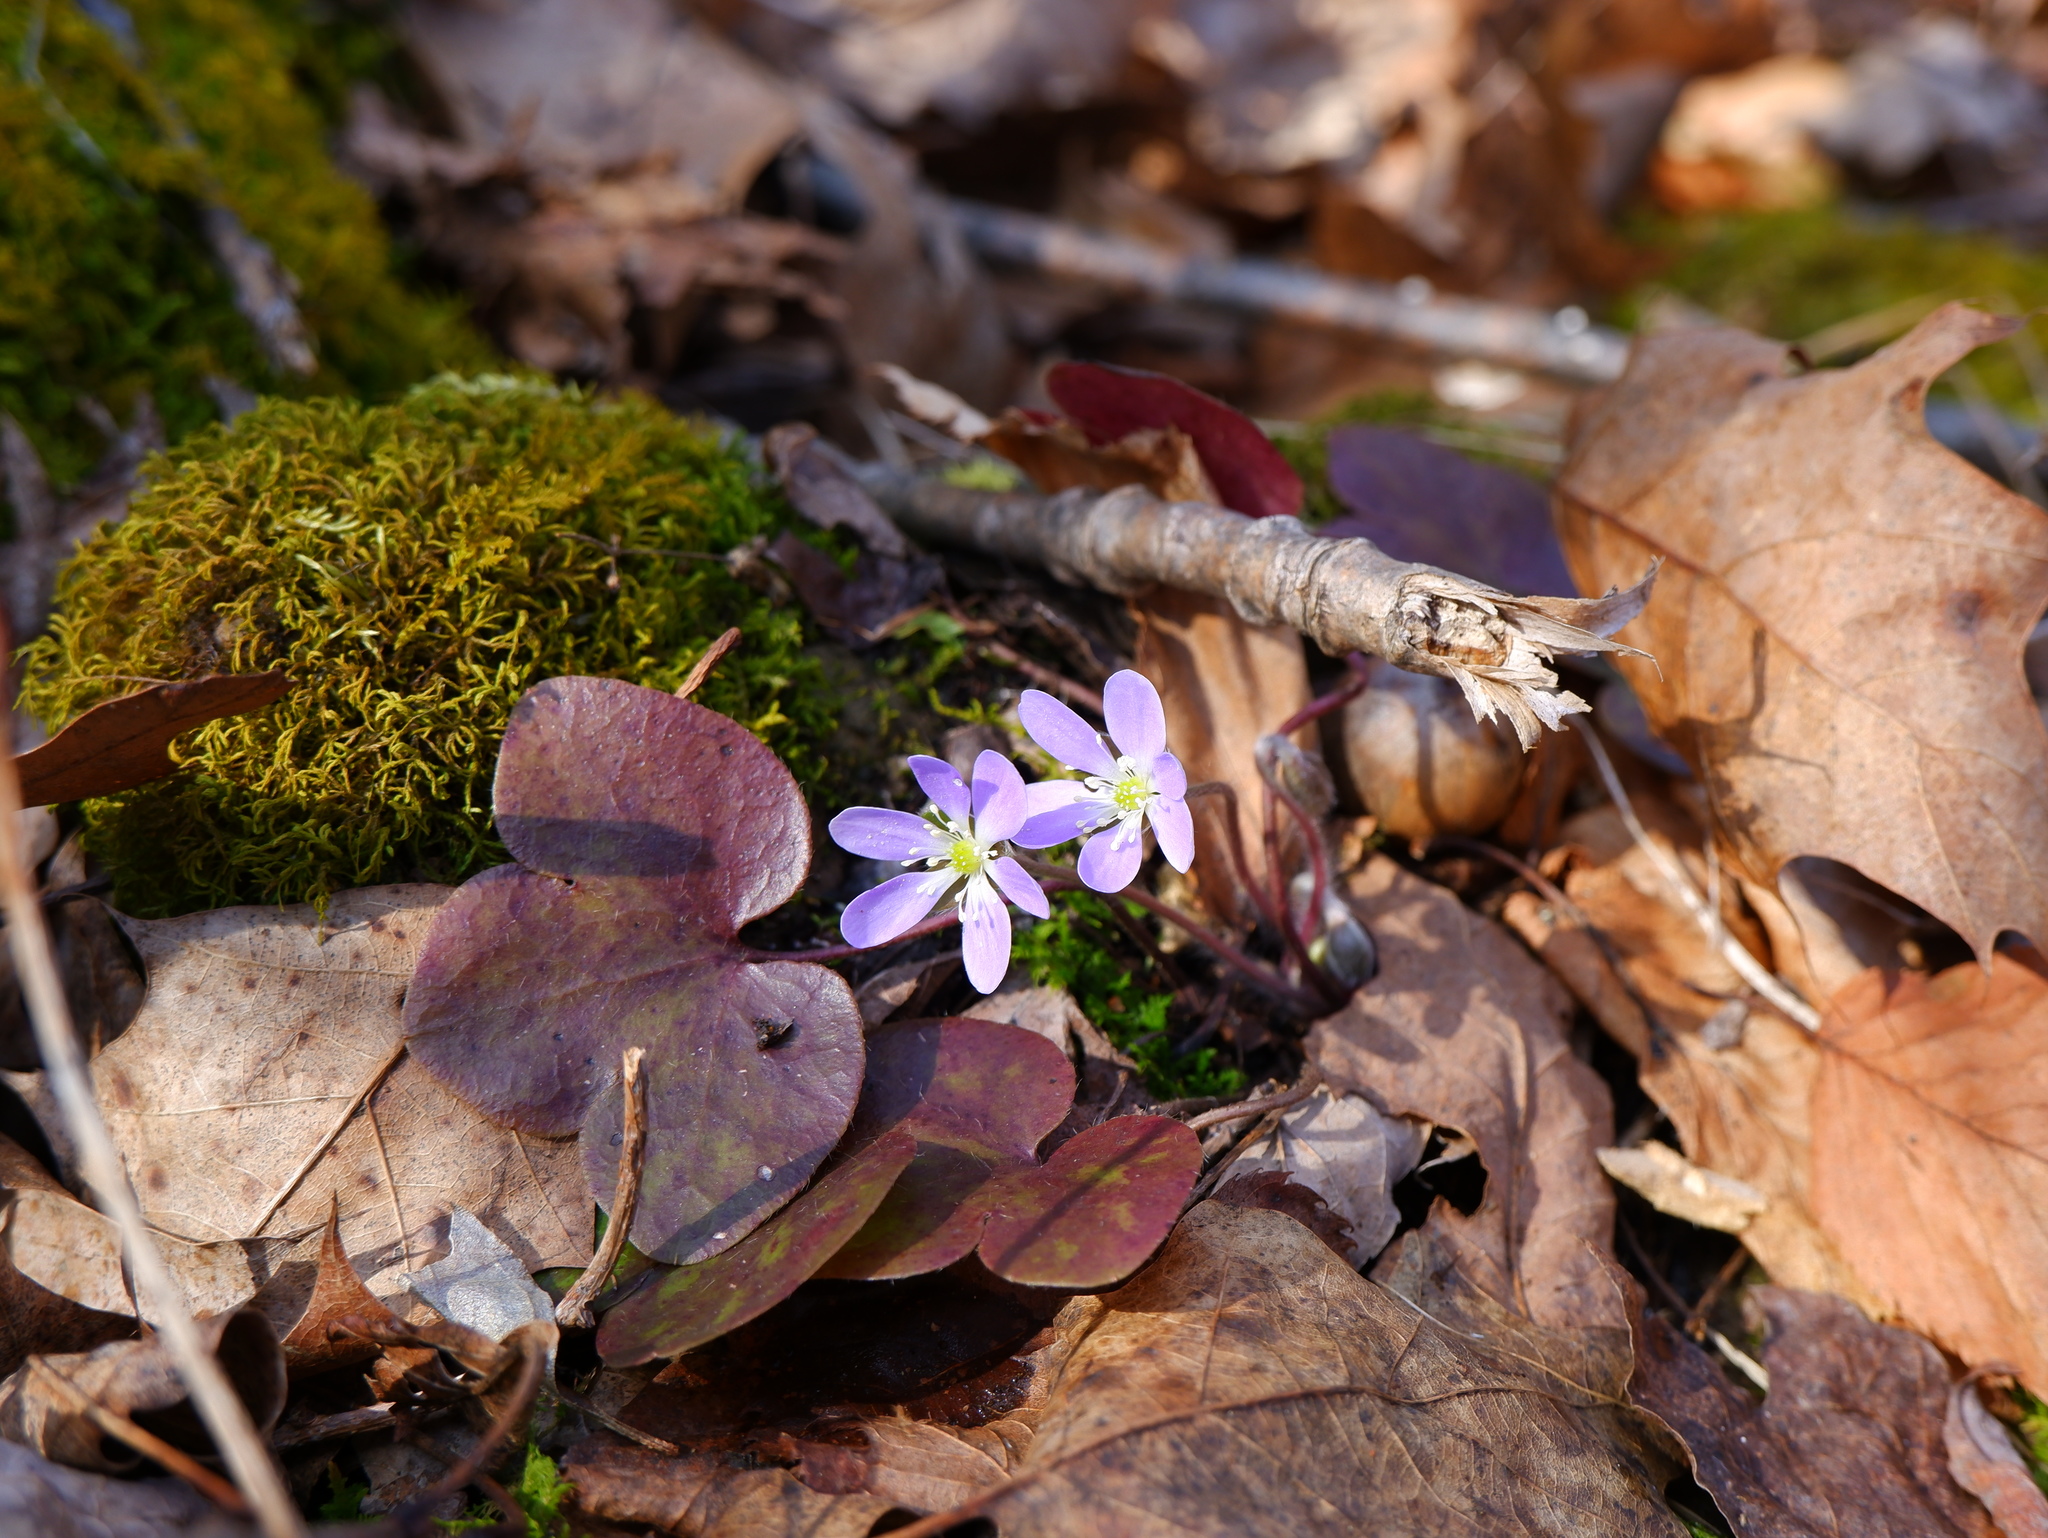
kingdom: Plantae
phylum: Tracheophyta
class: Magnoliopsida
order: Ranunculales
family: Ranunculaceae
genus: Hepatica
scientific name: Hepatica americana
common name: American hepatica
